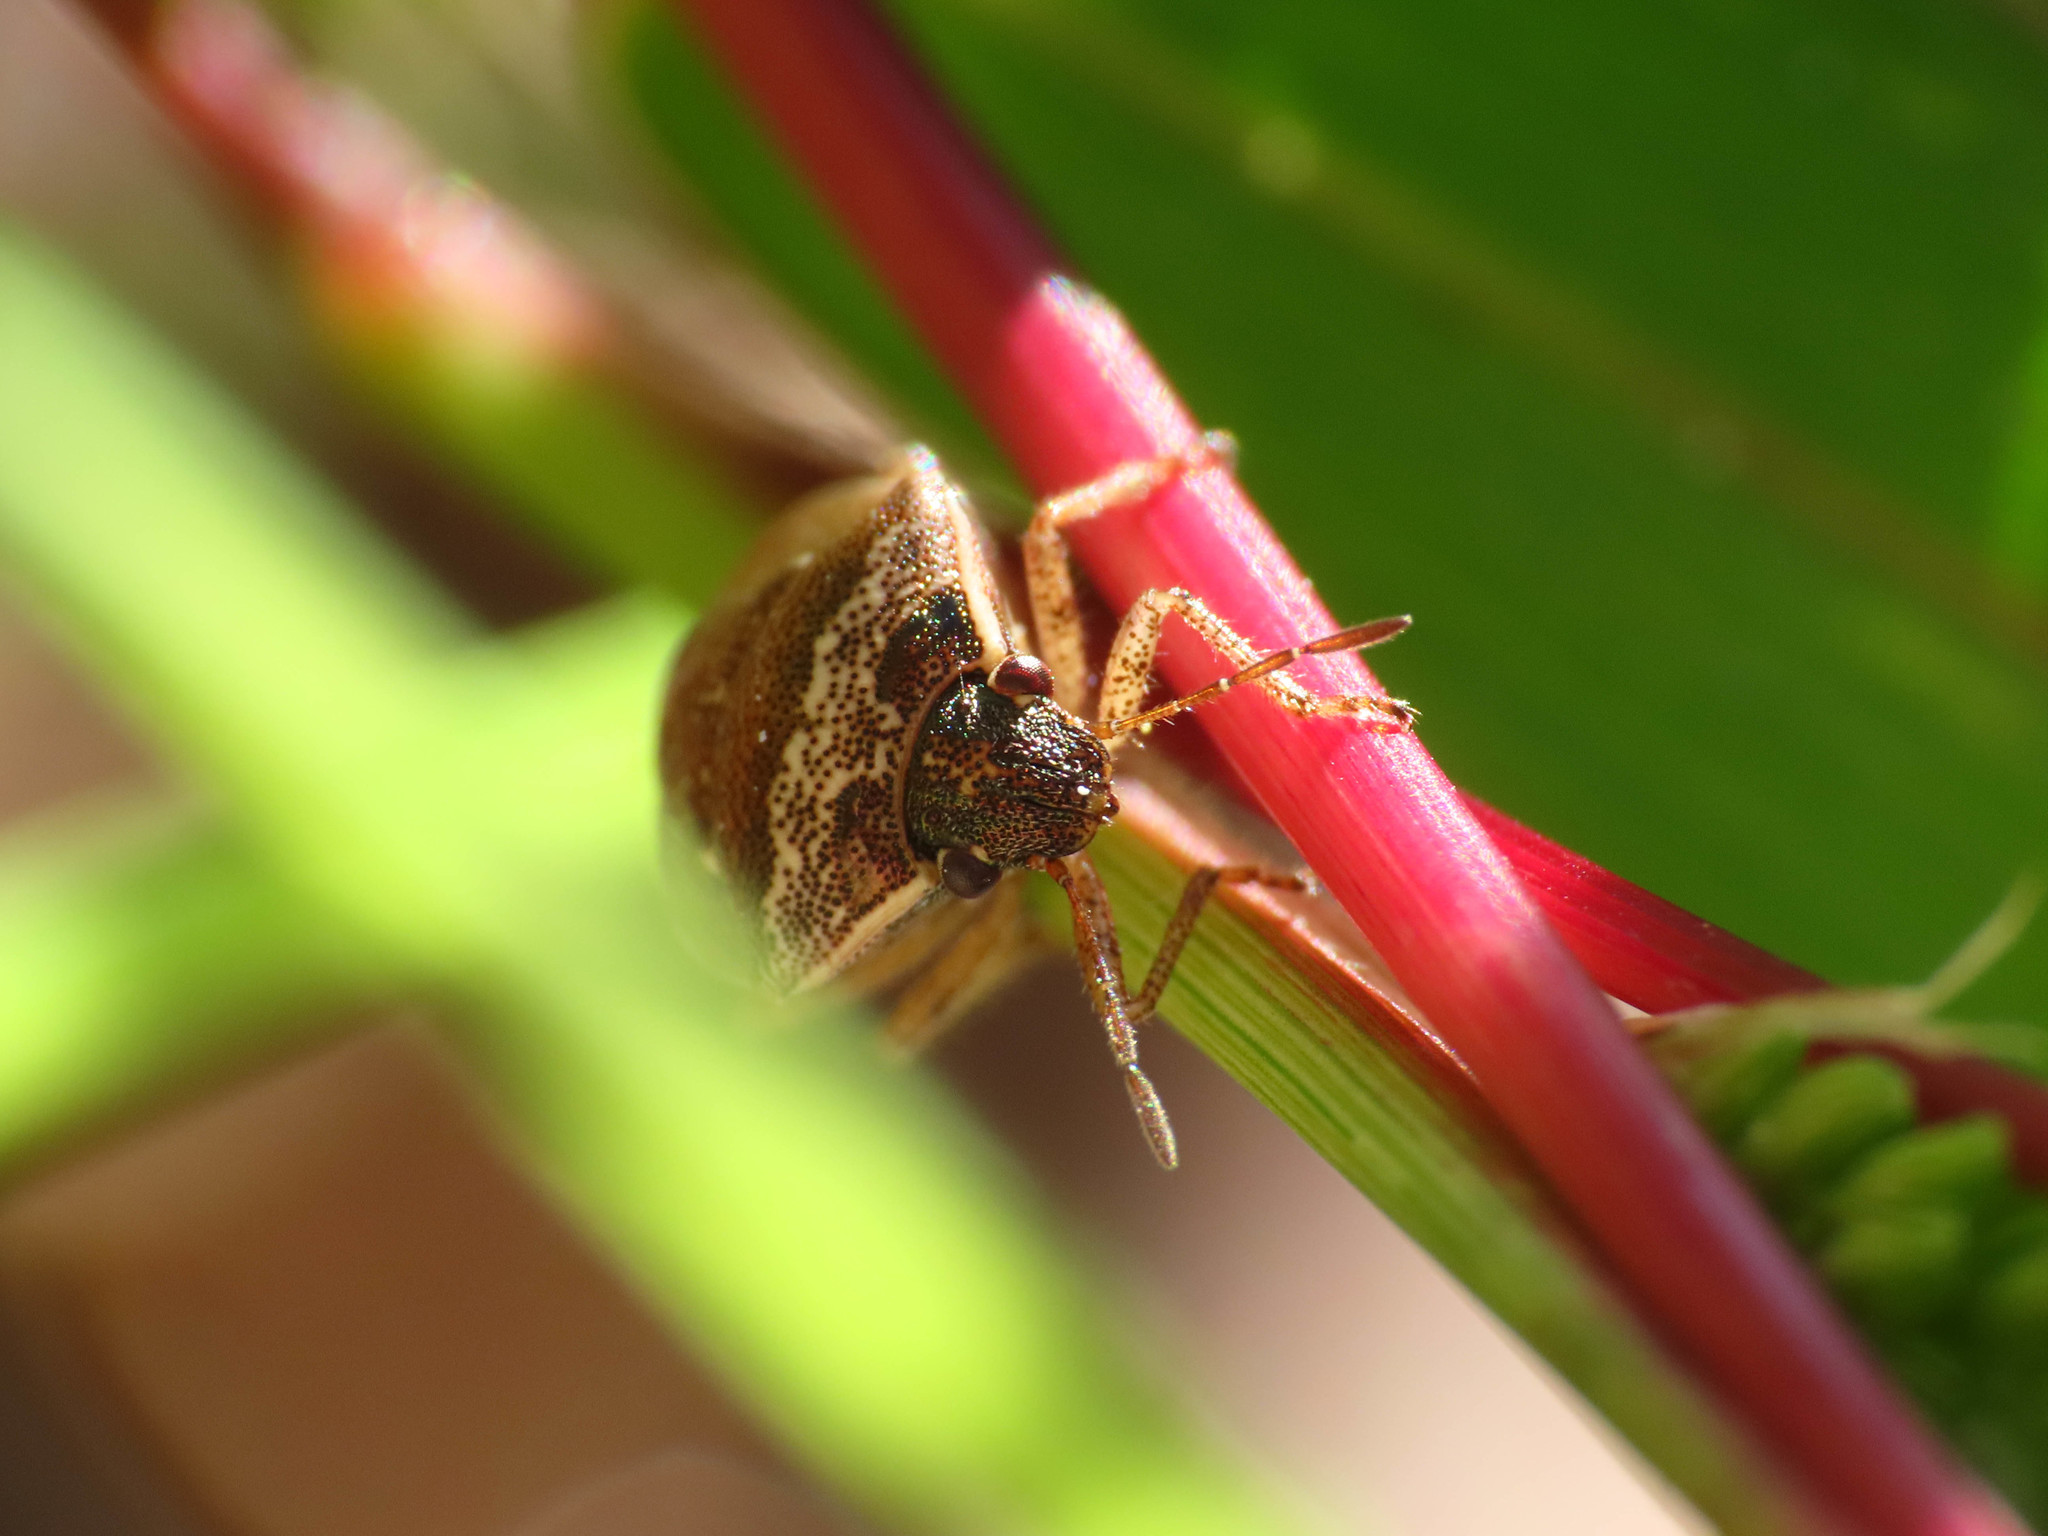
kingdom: Animalia
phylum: Arthropoda
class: Insecta
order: Hemiptera
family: Pentatomidae
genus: Eysarcoris
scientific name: Eysarcoris ventralis
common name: White-spotted stink bug
